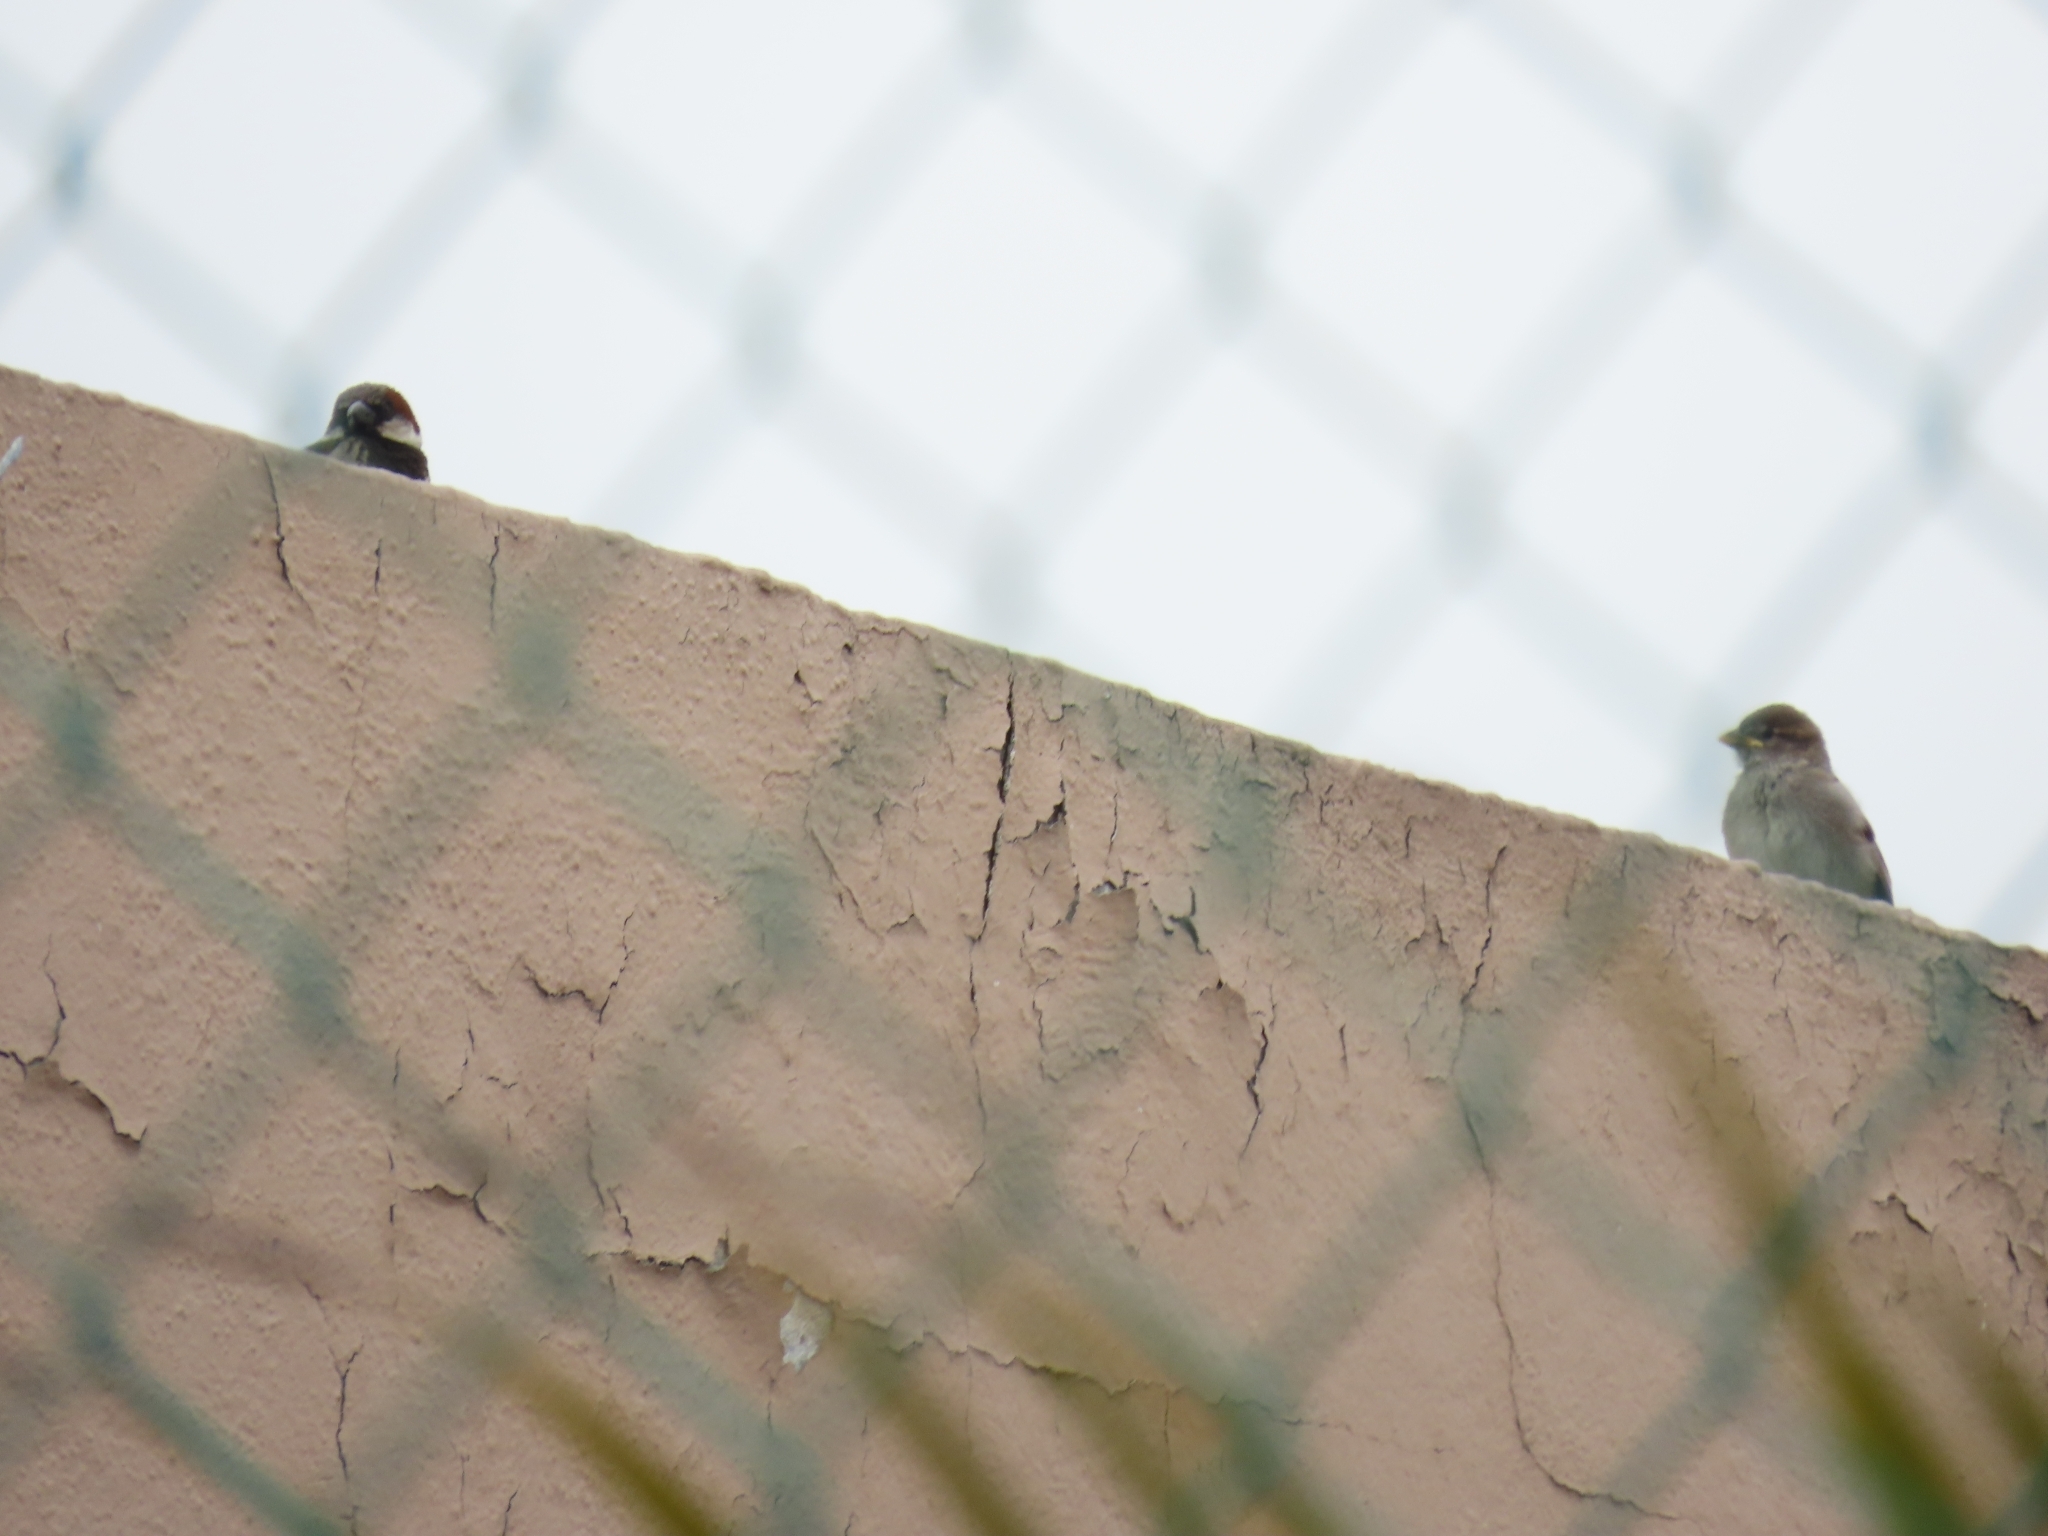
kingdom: Animalia
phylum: Chordata
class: Aves
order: Passeriformes
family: Passeridae
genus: Passer
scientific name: Passer domesticus
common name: House sparrow
